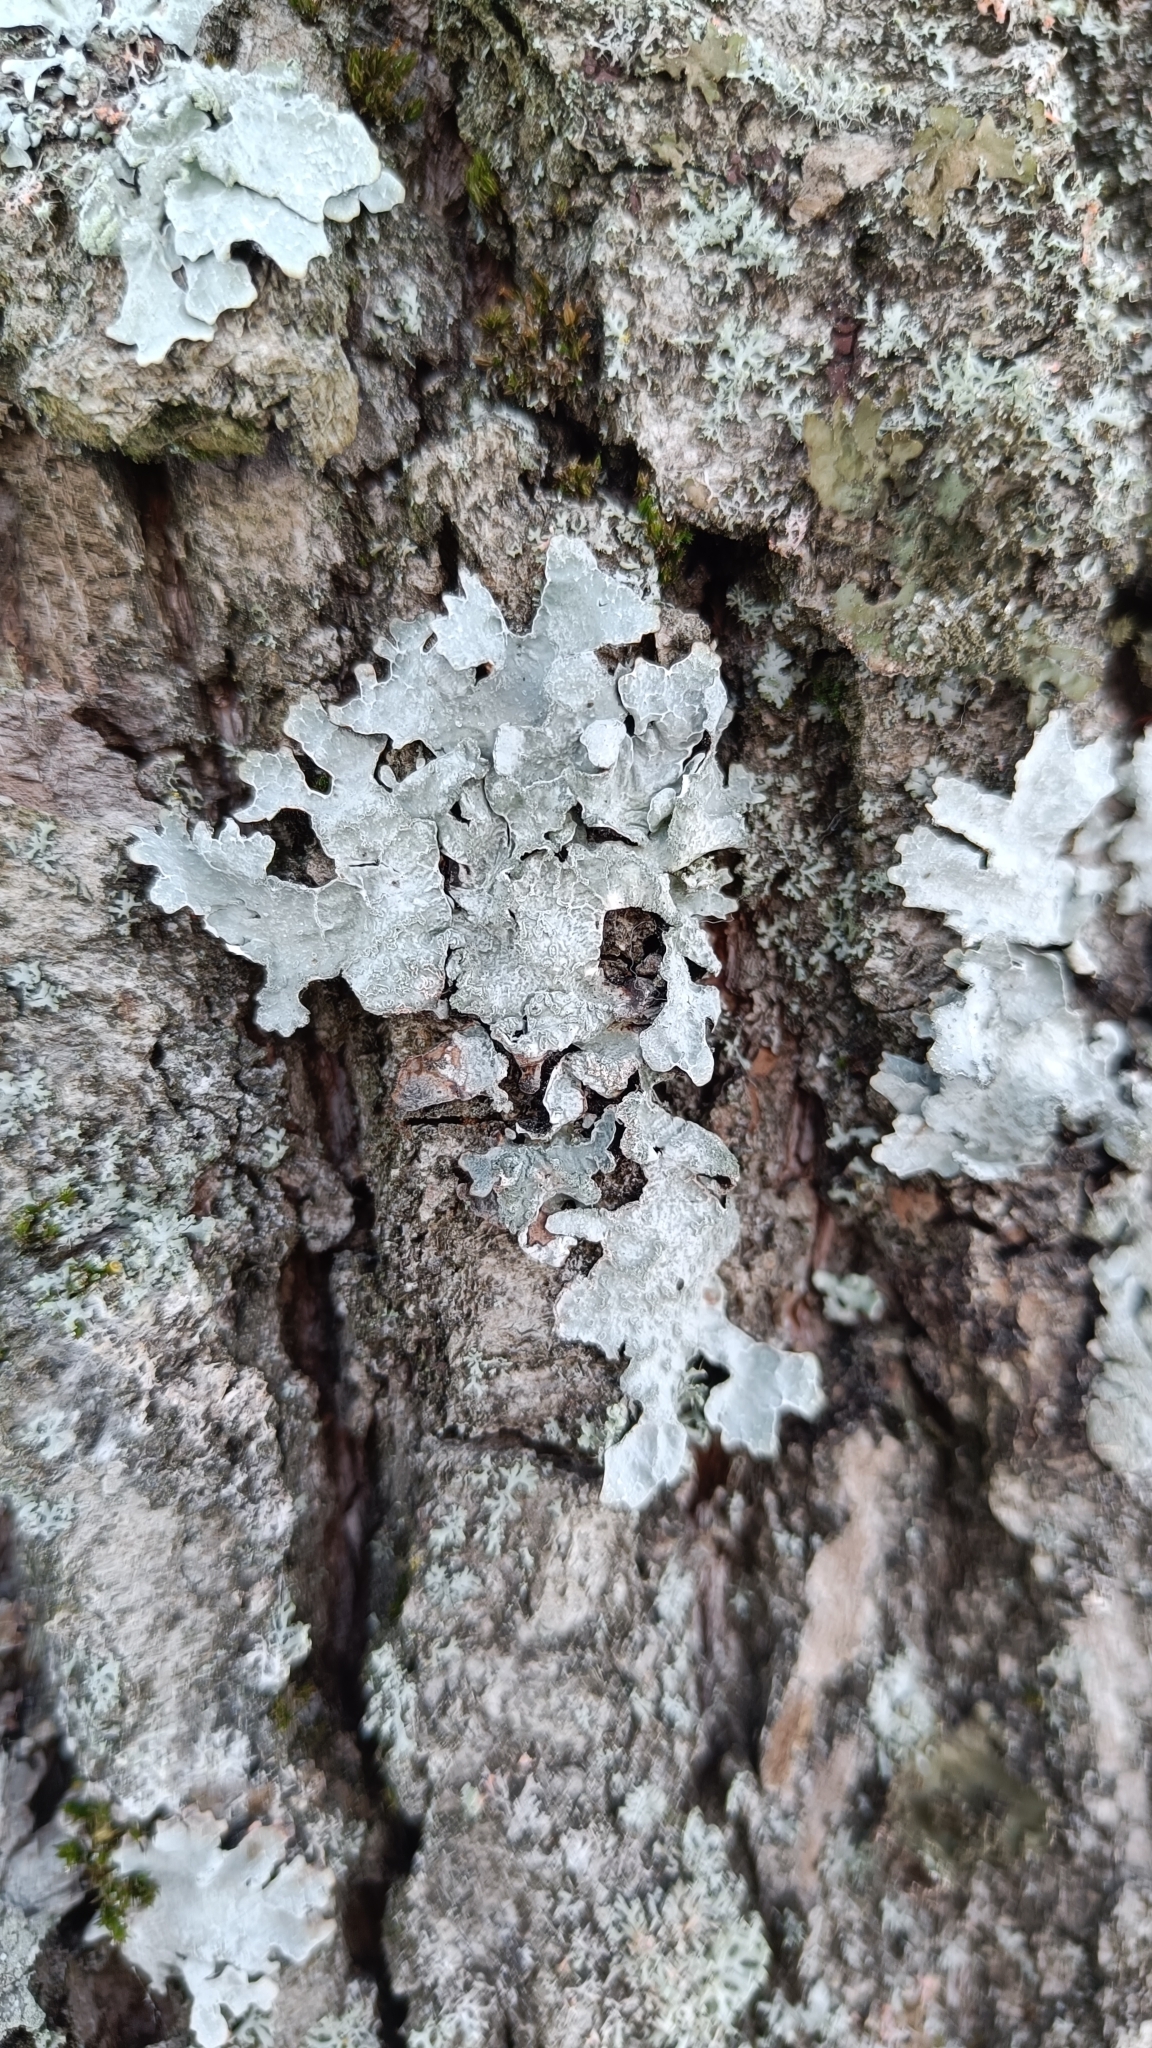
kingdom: Fungi
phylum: Ascomycota
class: Lecanoromycetes
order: Lecanorales
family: Parmeliaceae
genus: Parmelia
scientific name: Parmelia sulcata
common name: Netted shield lichen
